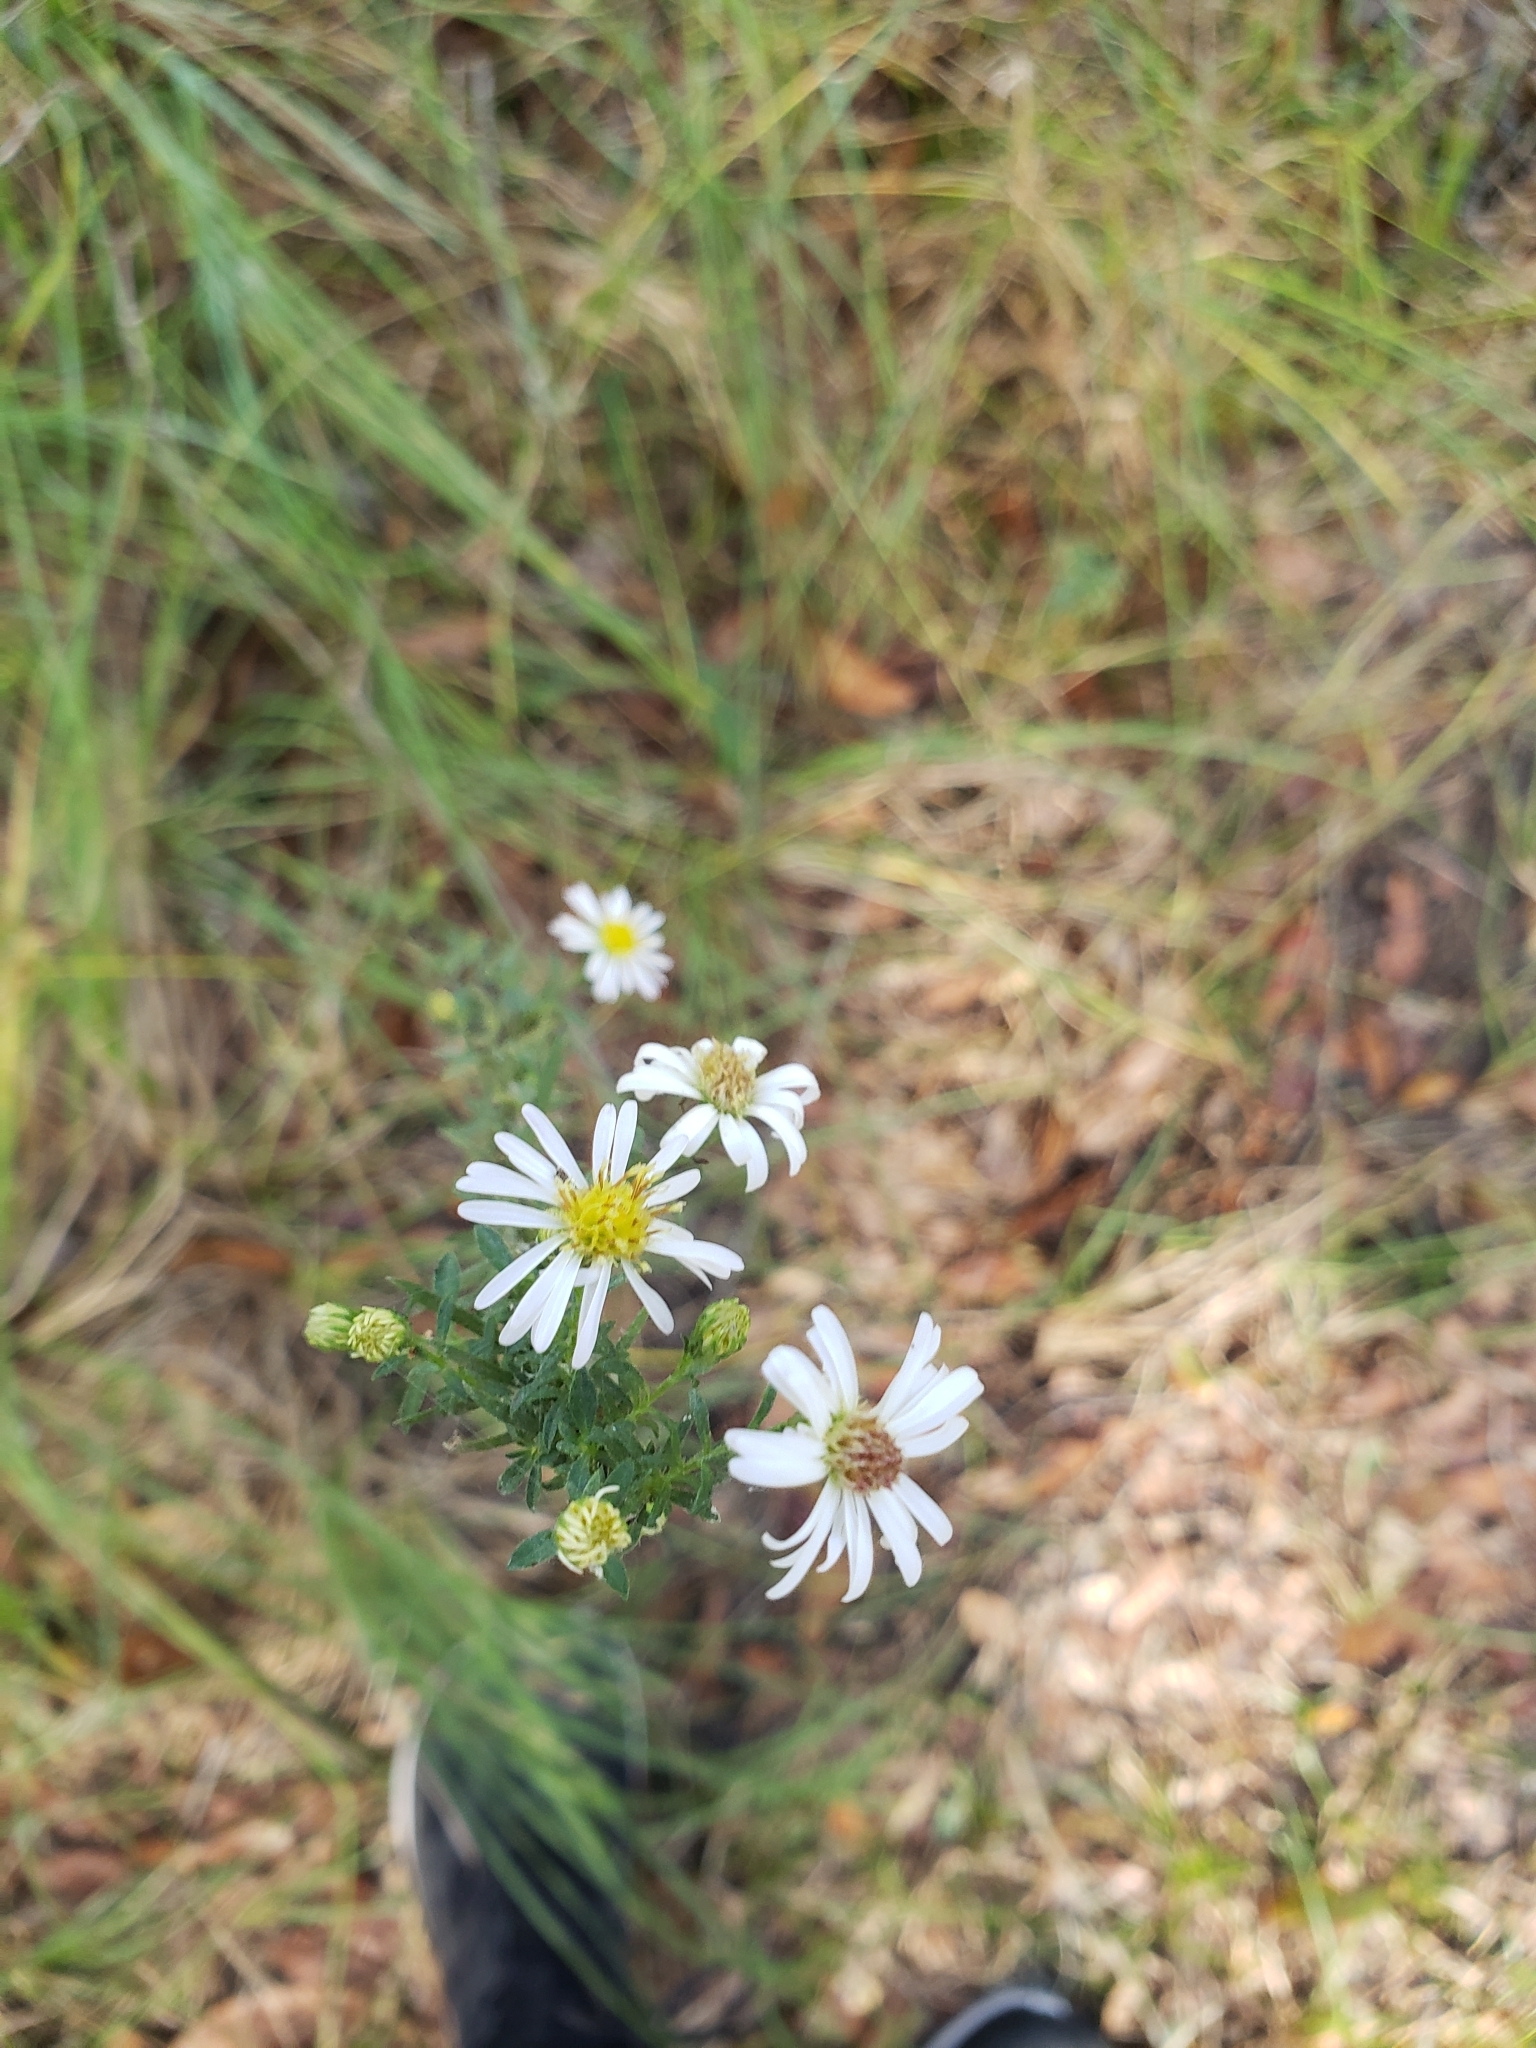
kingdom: Plantae
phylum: Tracheophyta
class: Magnoliopsida
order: Asterales
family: Asteraceae
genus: Symphyotrichum
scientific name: Symphyotrichum dumosum
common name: Bushy aster
